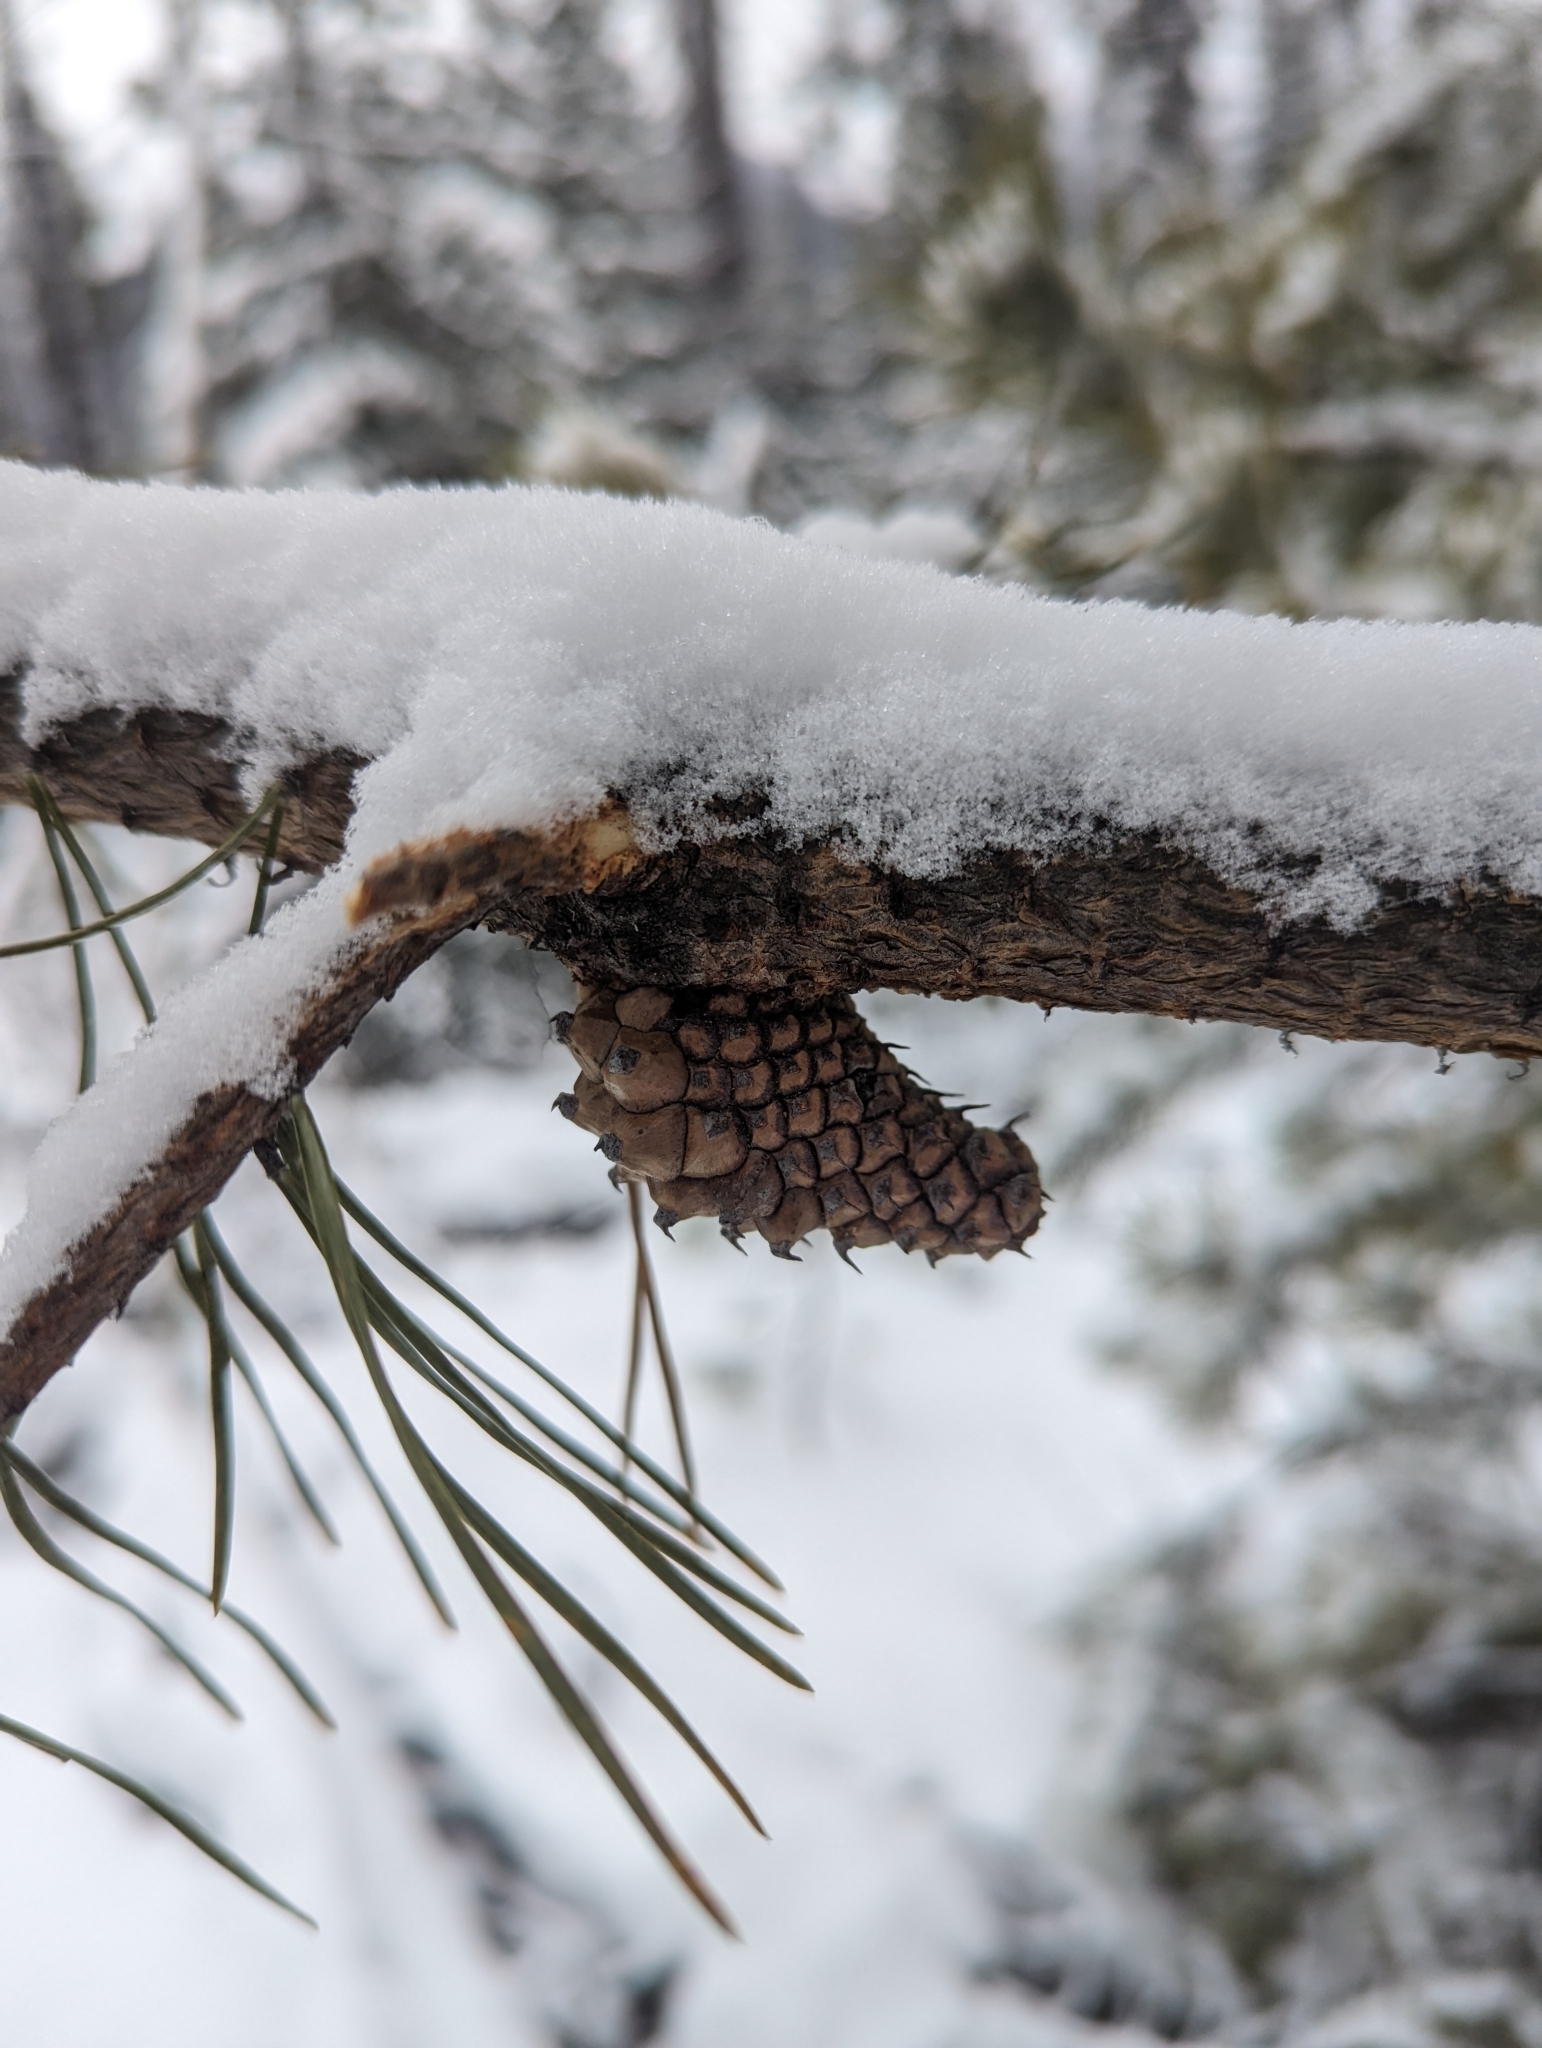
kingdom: Plantae
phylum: Tracheophyta
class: Pinopsida
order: Pinales
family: Pinaceae
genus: Pinus
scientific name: Pinus contorta
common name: Lodgepole pine
